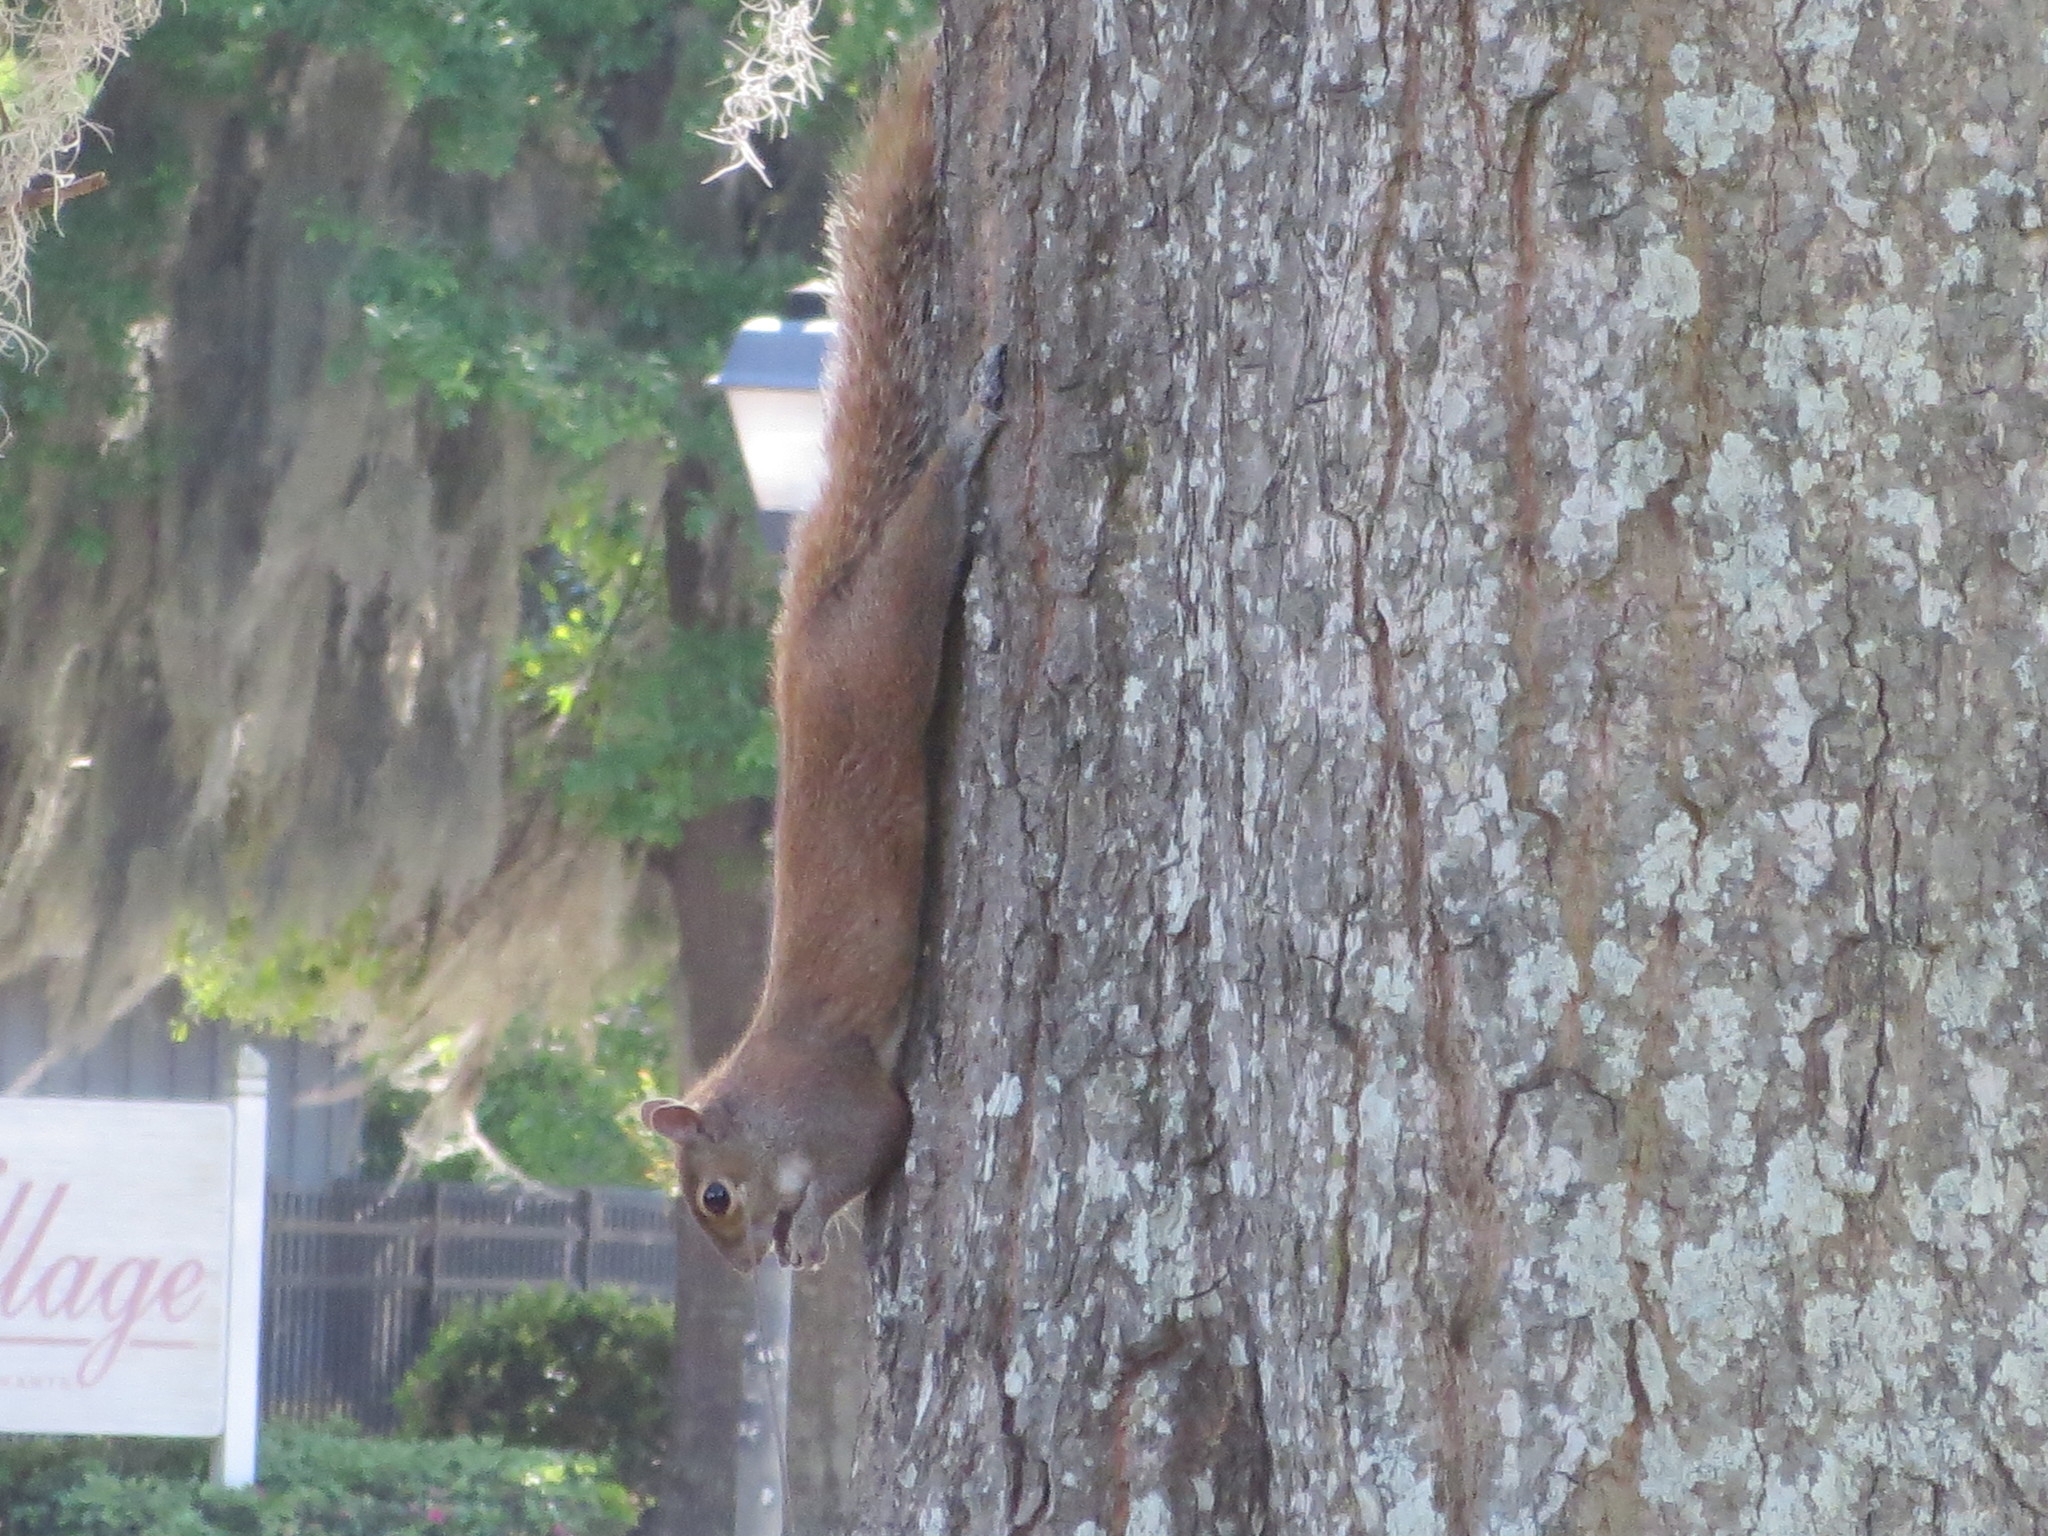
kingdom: Animalia
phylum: Chordata
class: Mammalia
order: Rodentia
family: Sciuridae
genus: Sciurus
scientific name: Sciurus carolinensis
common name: Eastern gray squirrel
